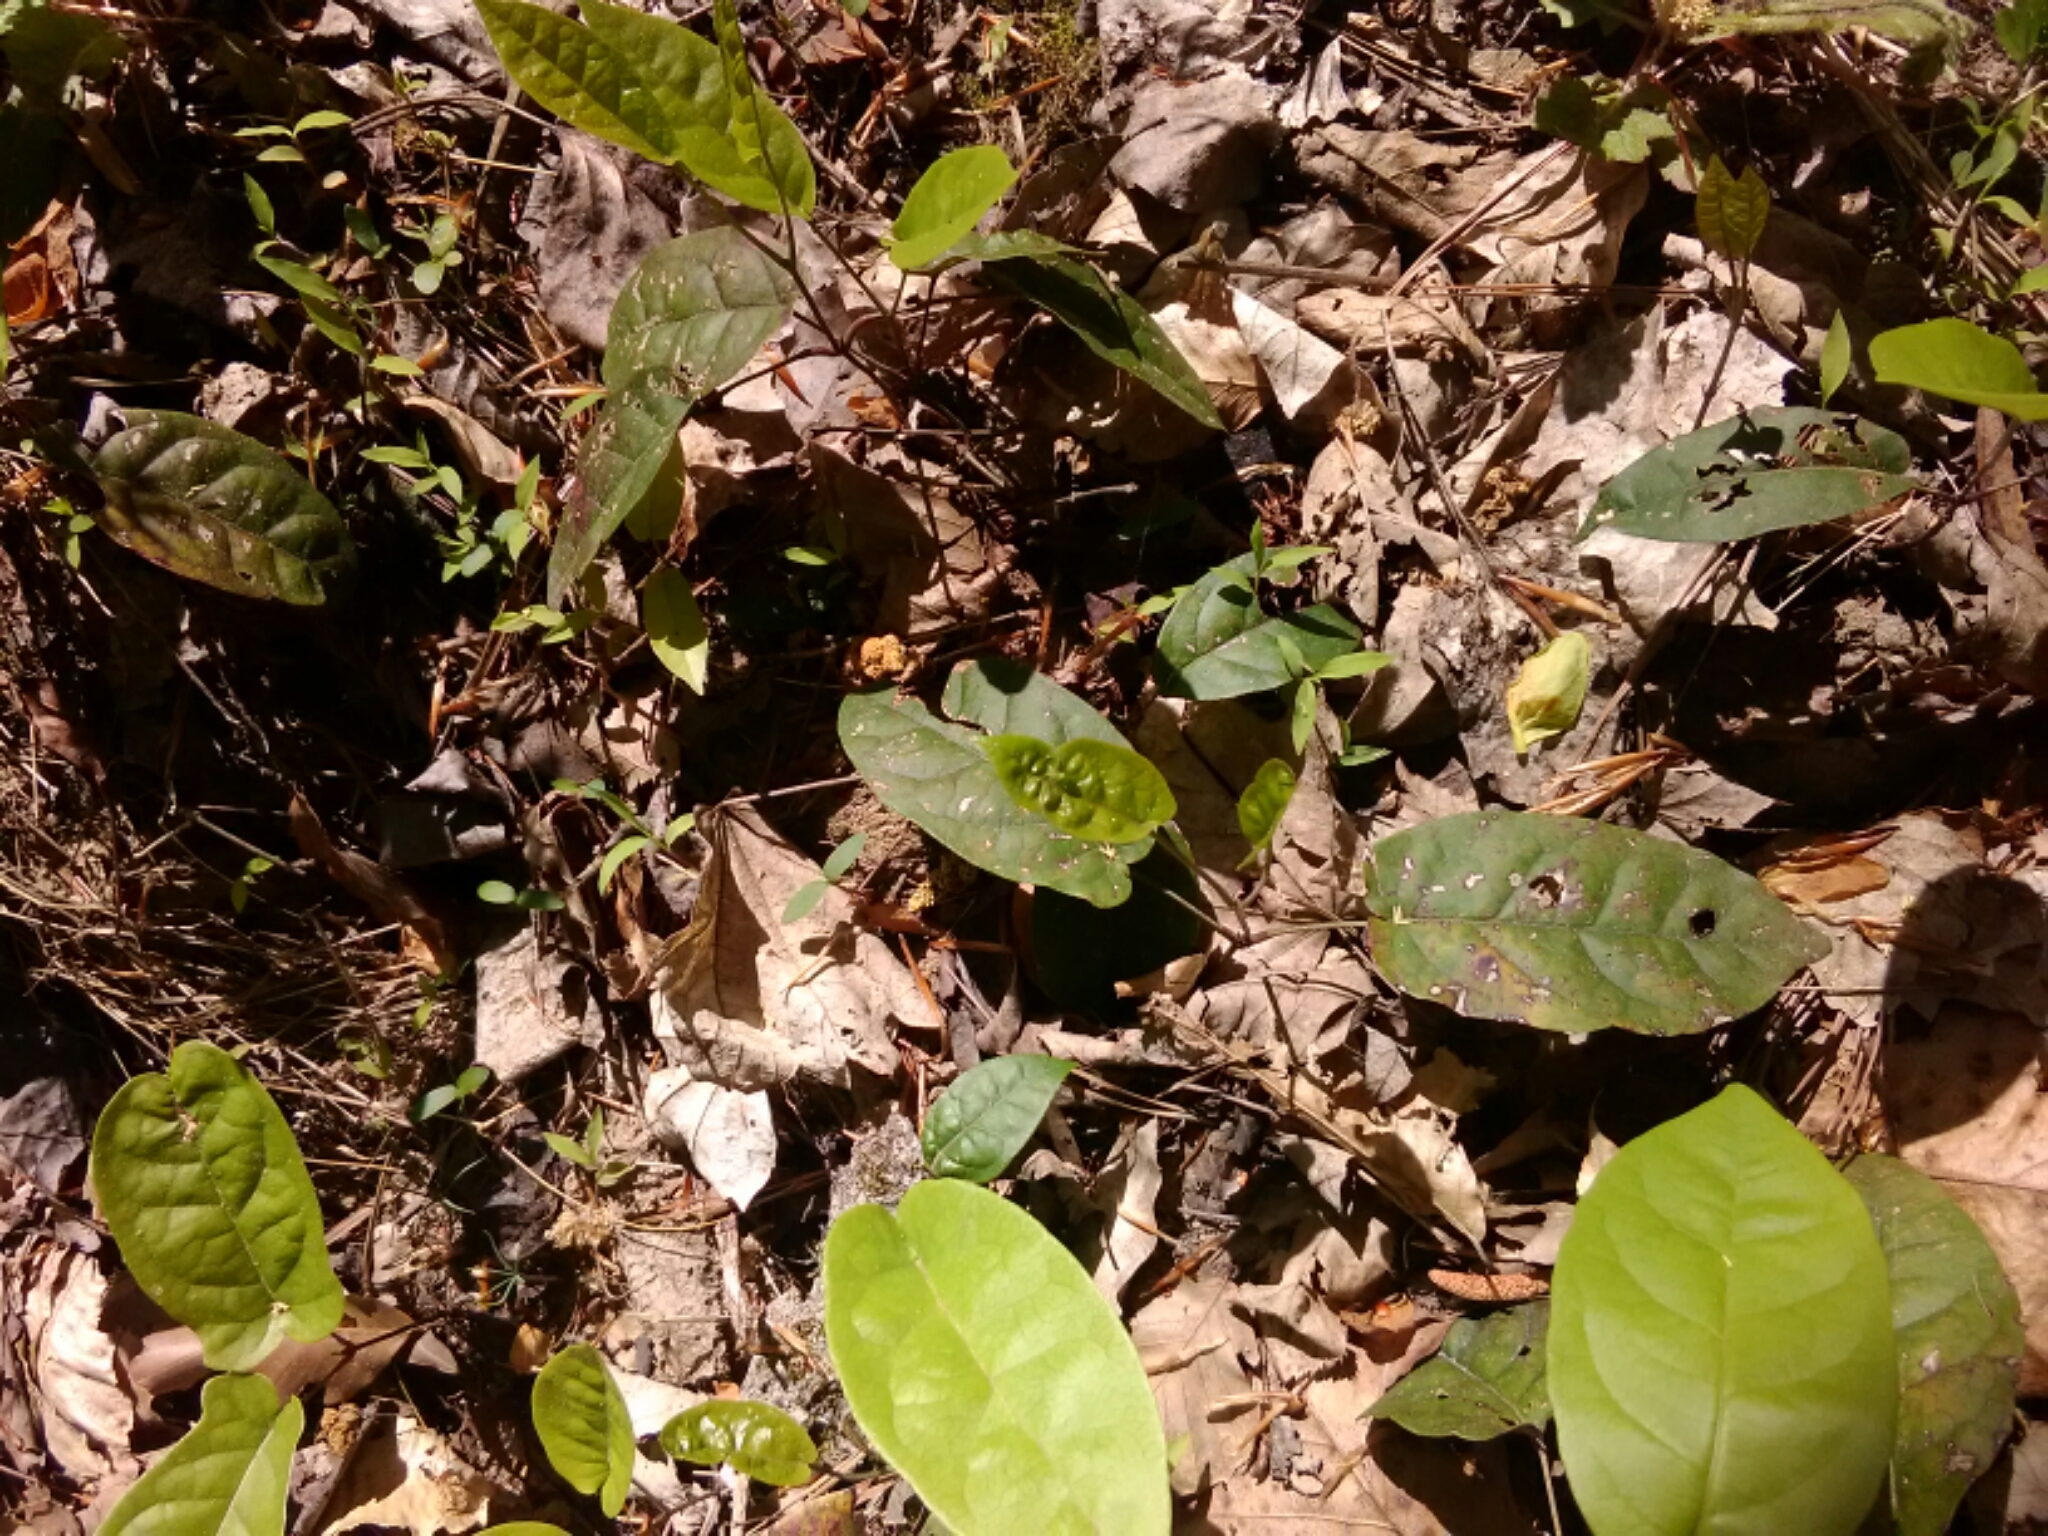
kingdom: Plantae
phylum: Tracheophyta
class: Magnoliopsida
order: Lamiales
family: Bignoniaceae
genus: Bignonia
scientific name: Bignonia capreolata
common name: Crossvine
